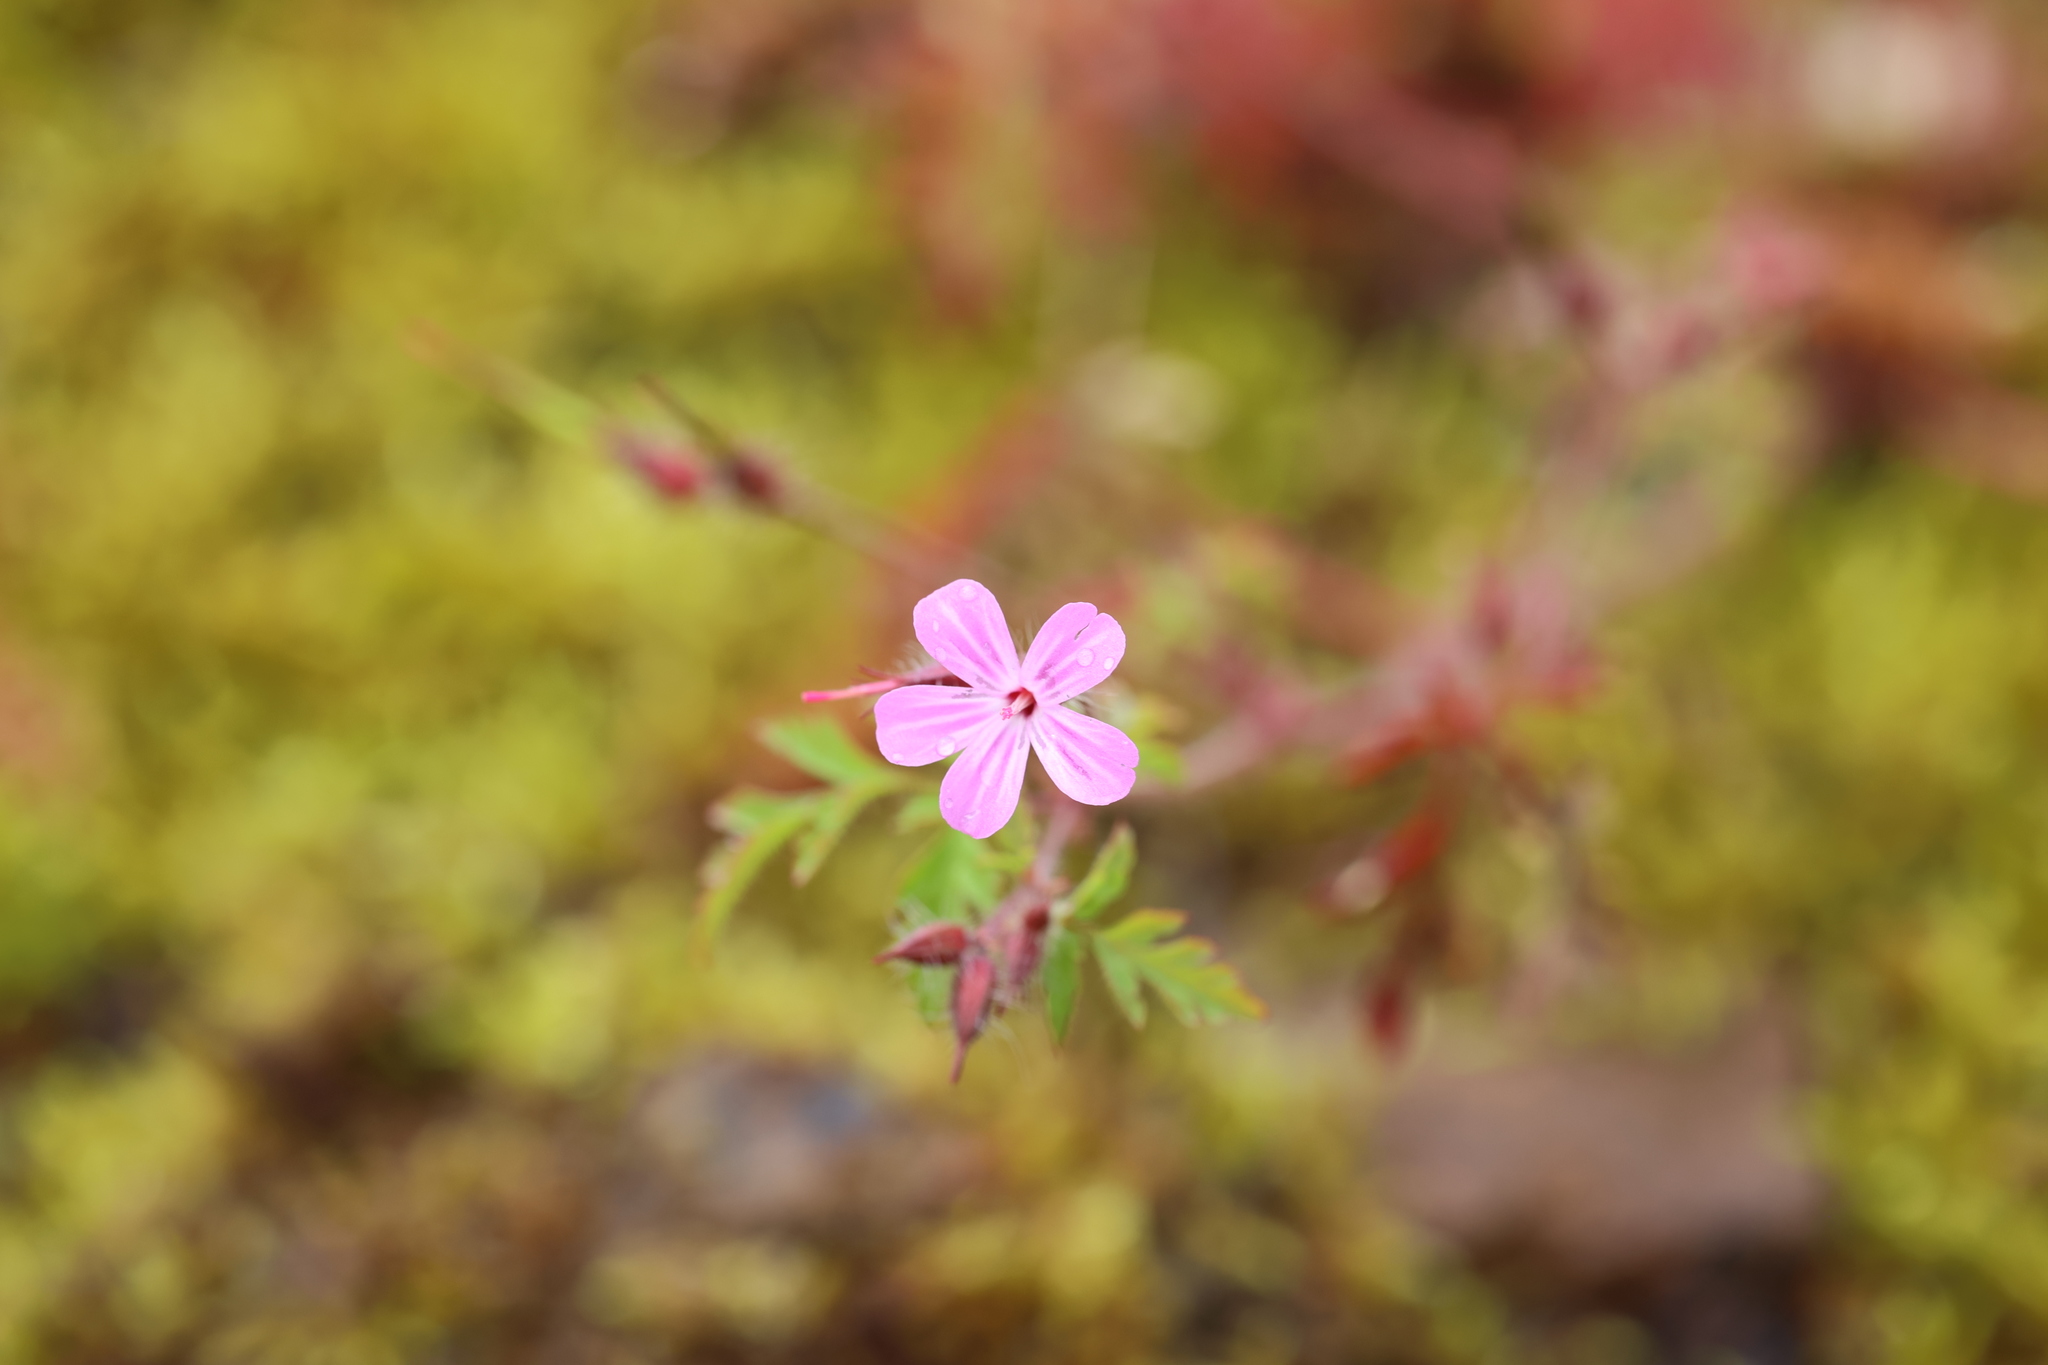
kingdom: Plantae
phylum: Tracheophyta
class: Magnoliopsida
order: Geraniales
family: Geraniaceae
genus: Geranium
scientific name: Geranium robertianum
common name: Herb-robert
